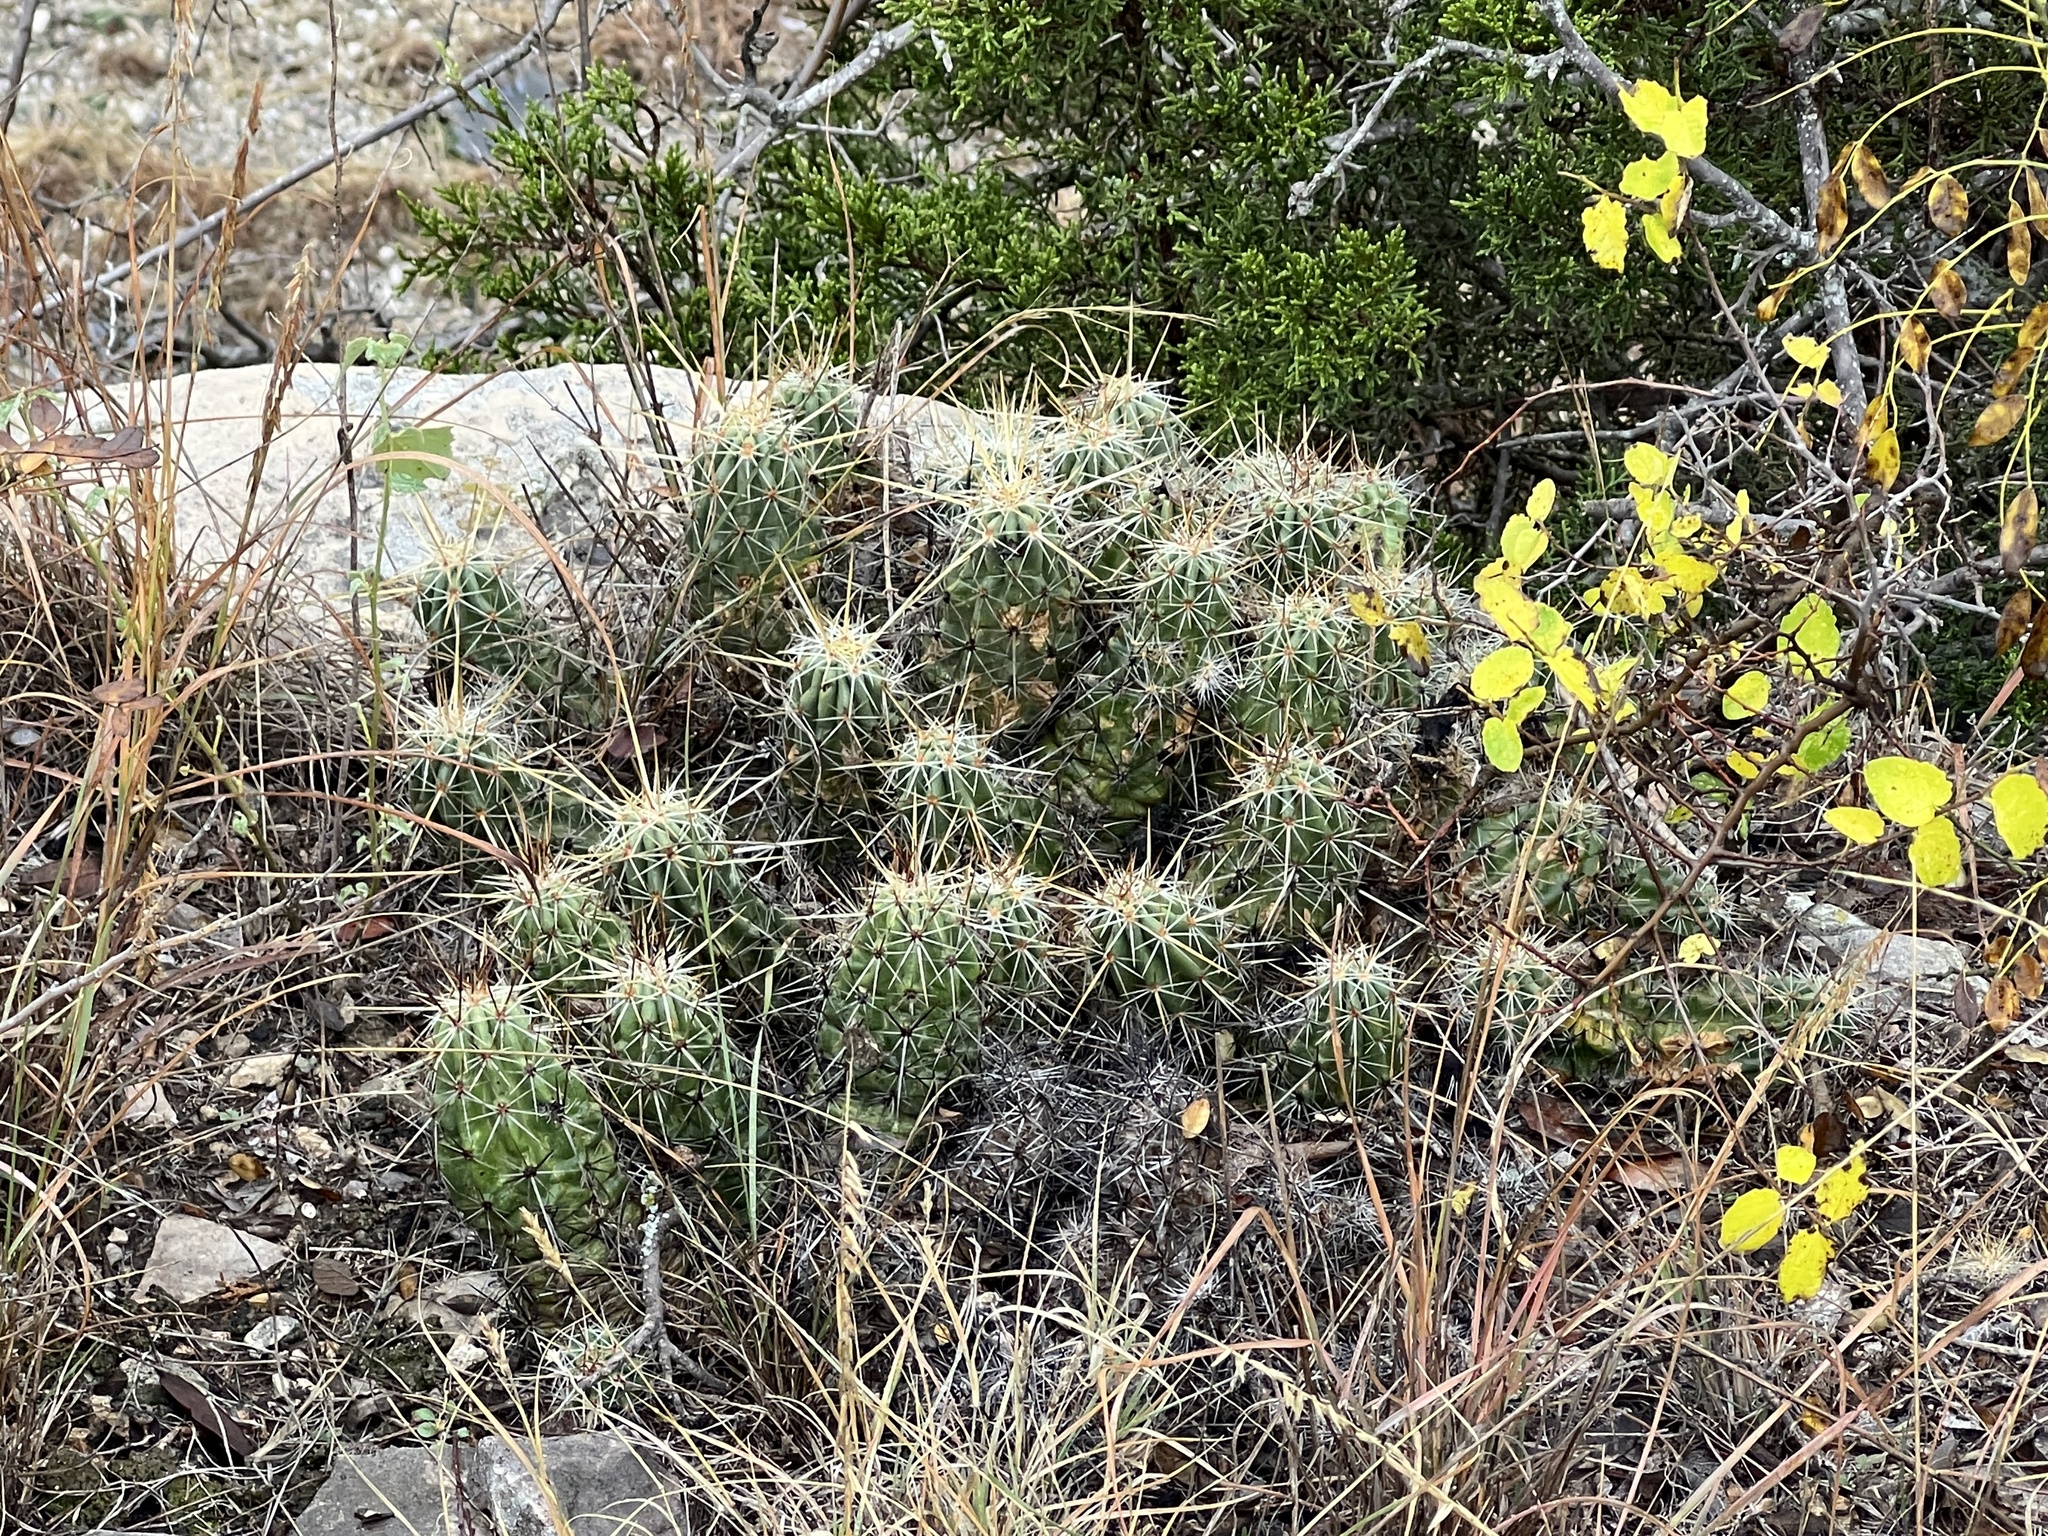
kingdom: Plantae
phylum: Tracheophyta
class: Magnoliopsida
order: Caryophyllales
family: Cactaceae
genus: Echinocereus
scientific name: Echinocereus enneacanthus
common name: Pitaya
